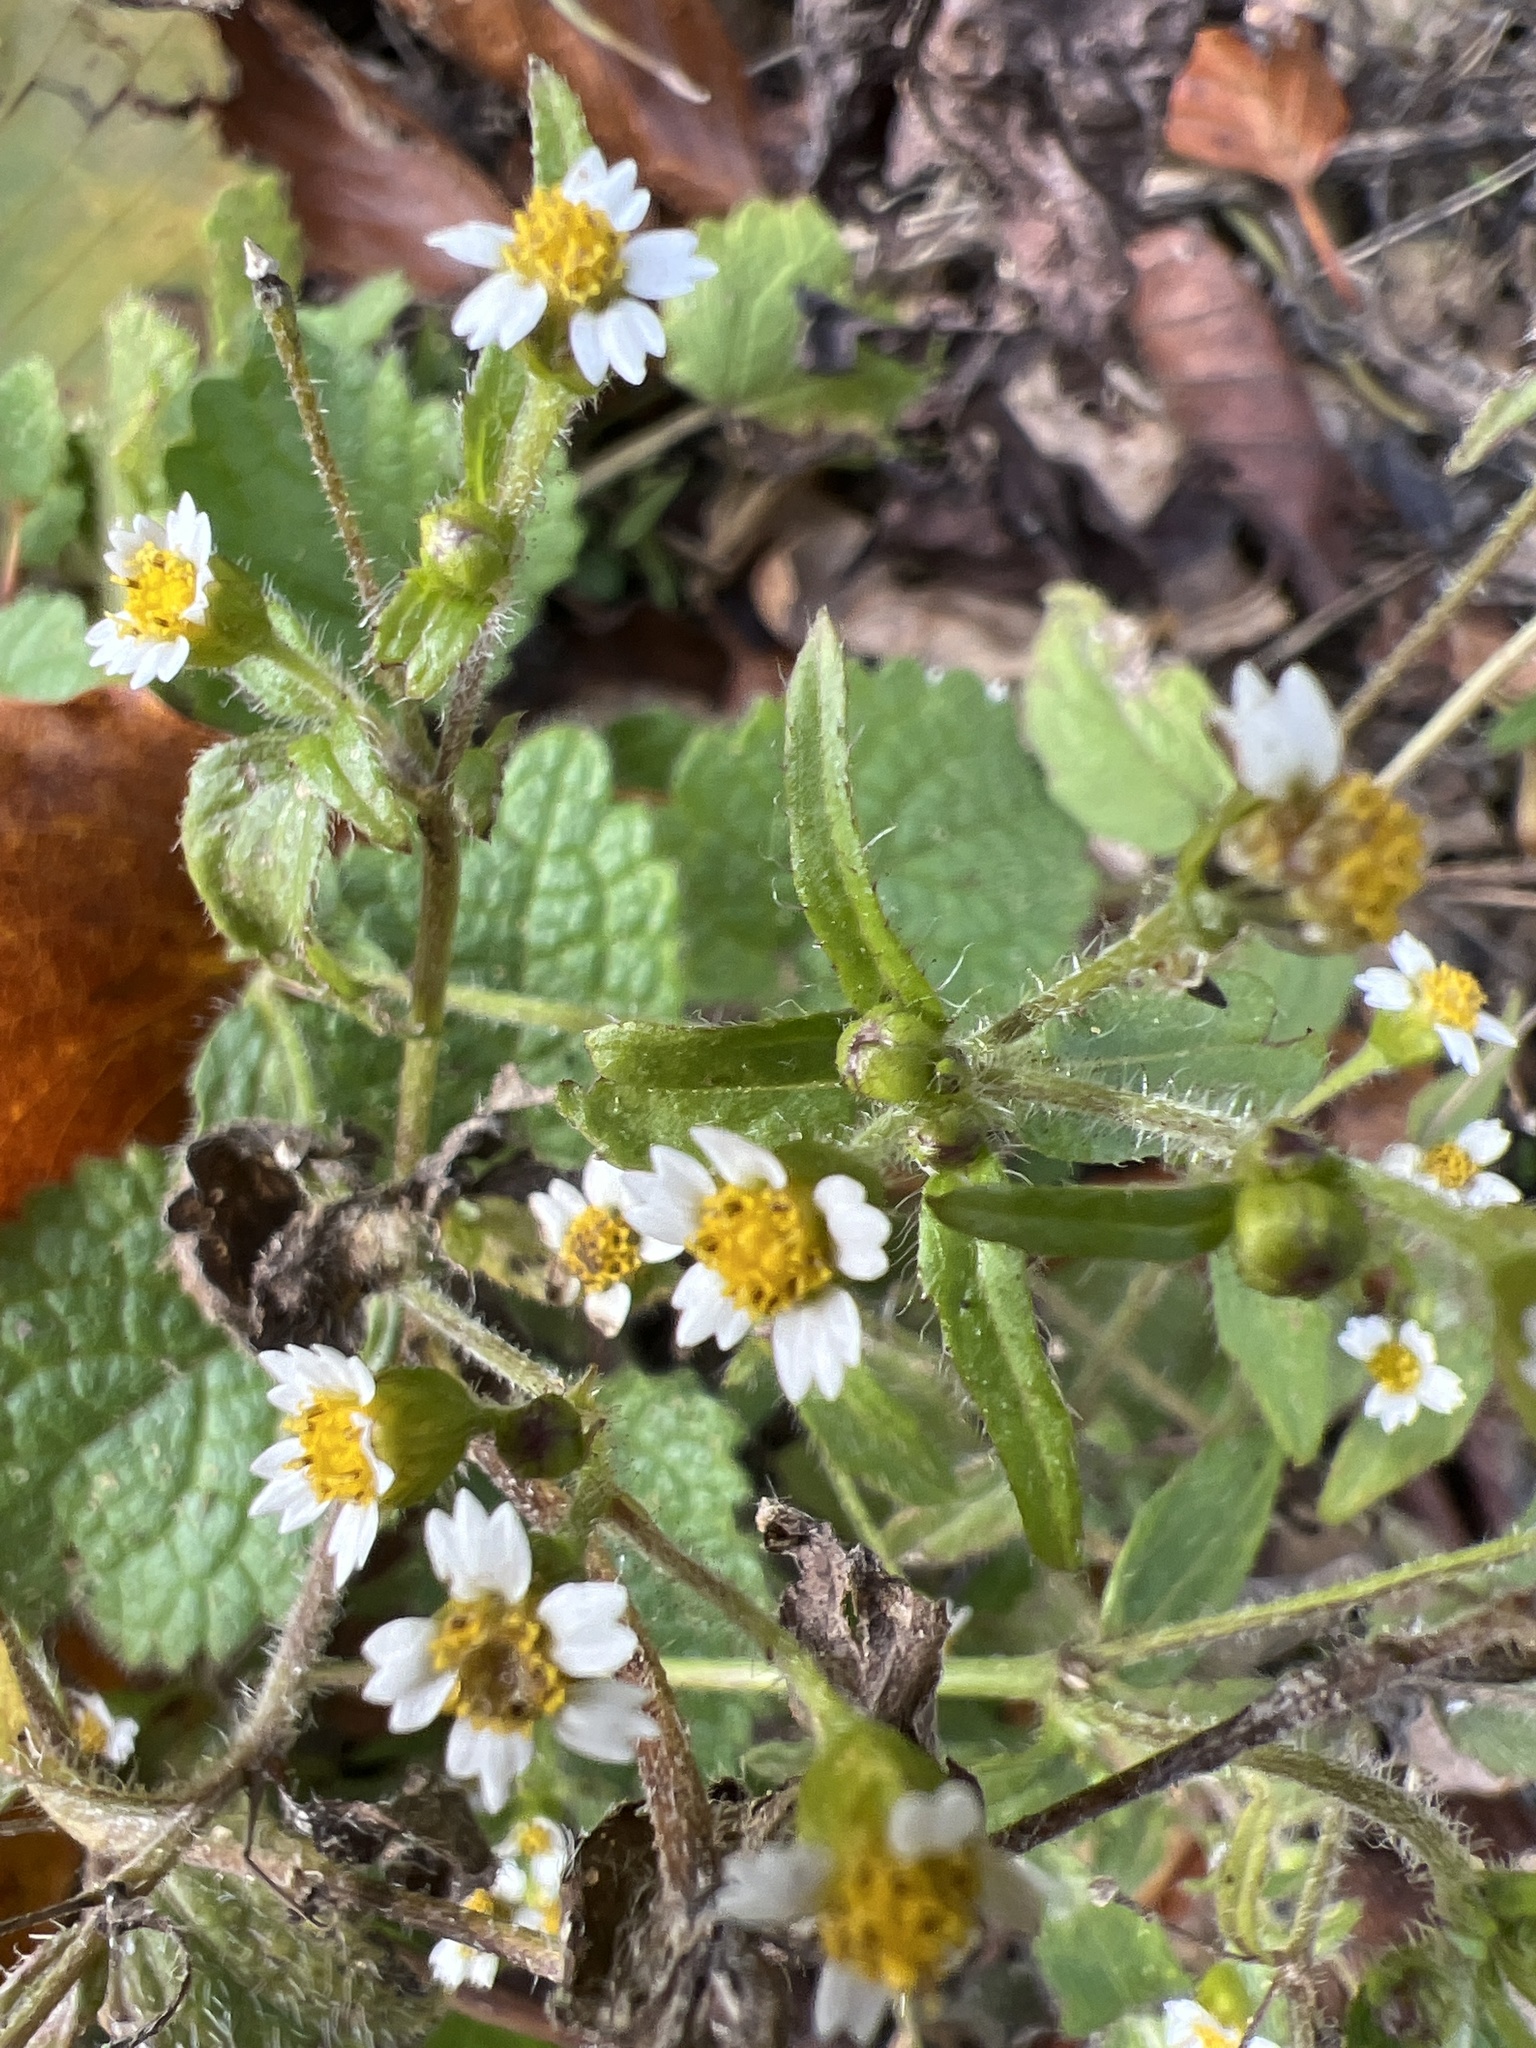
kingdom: Plantae
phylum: Tracheophyta
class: Magnoliopsida
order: Asterales
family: Asteraceae
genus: Galinsoga
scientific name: Galinsoga quadriradiata
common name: Shaggy soldier
